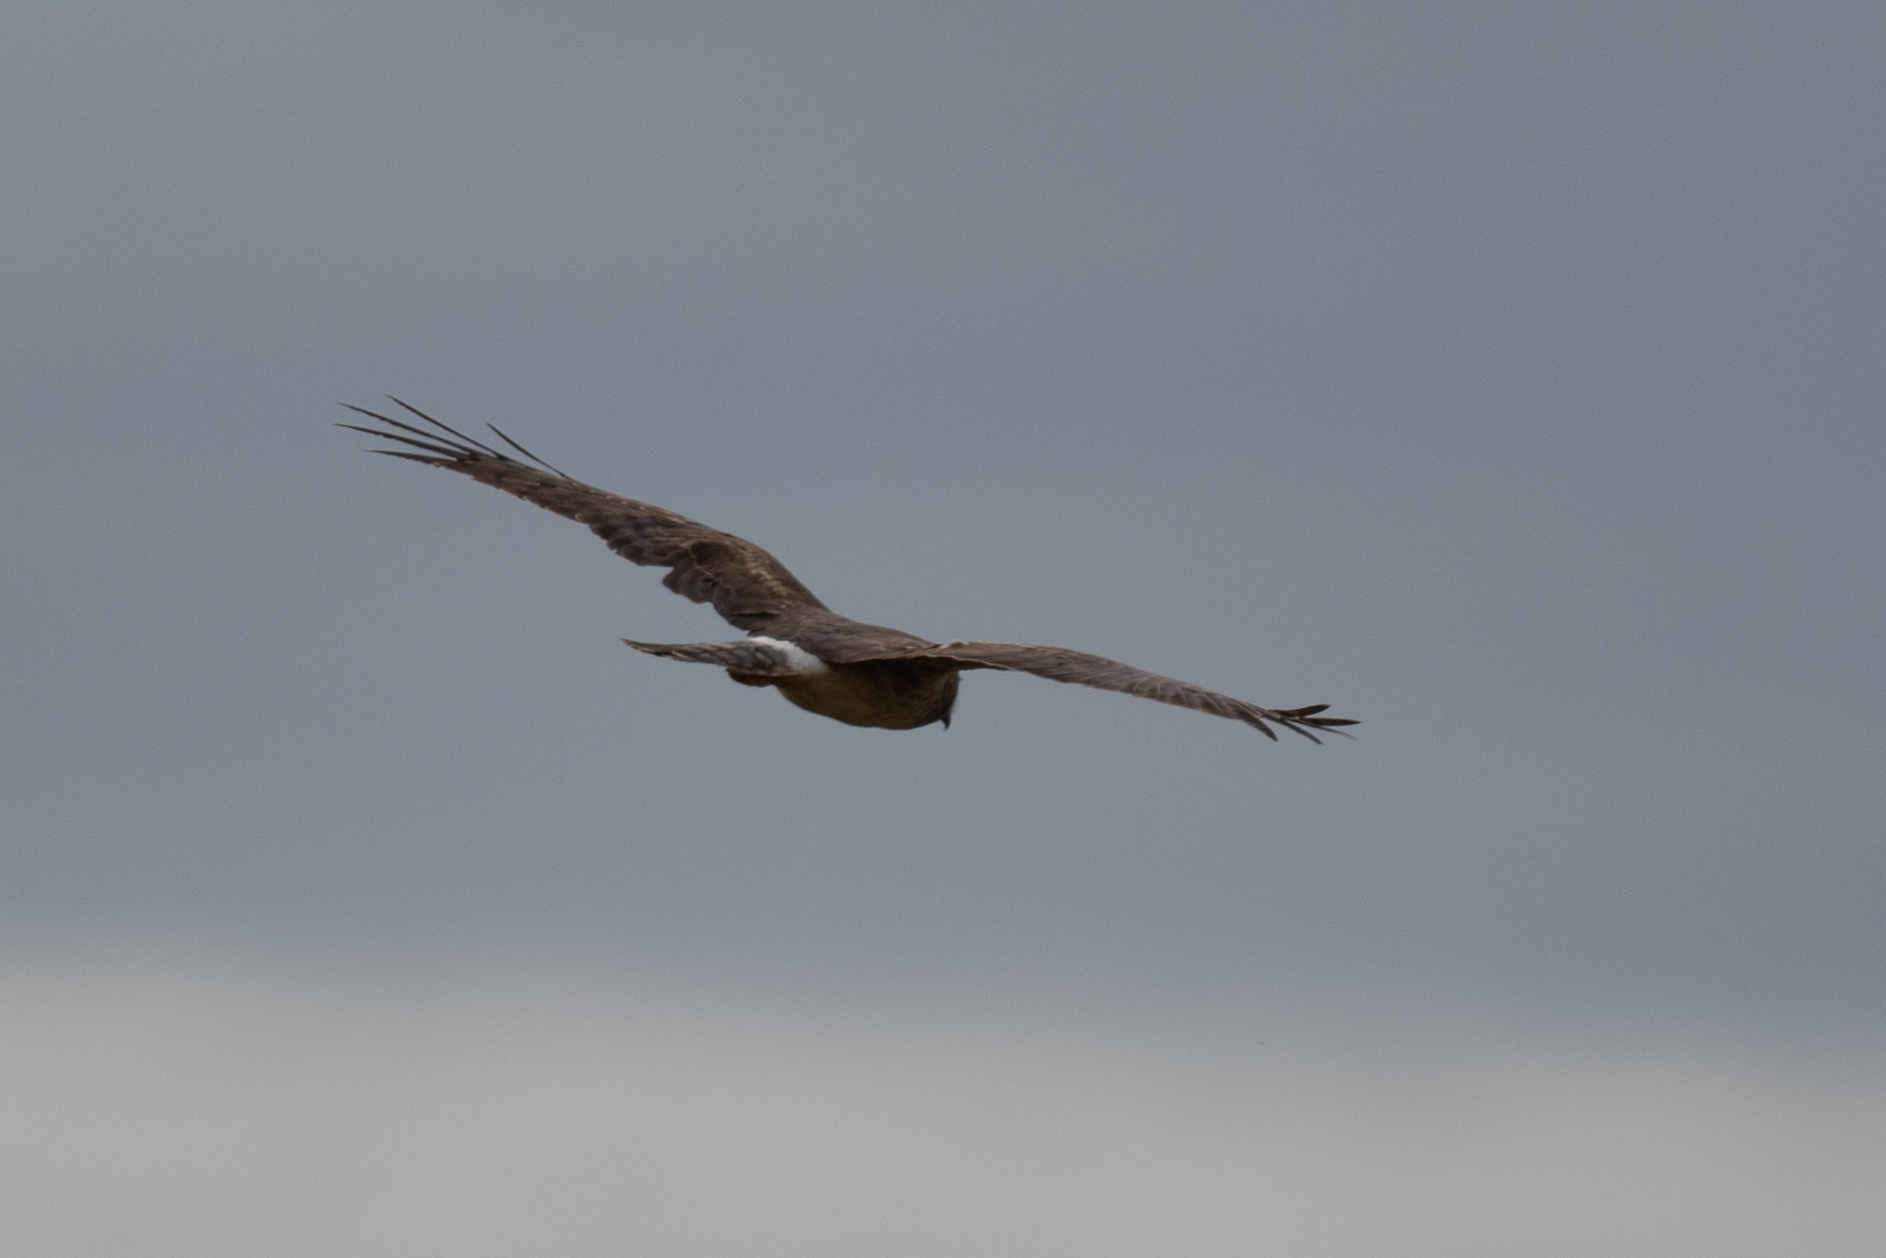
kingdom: Animalia
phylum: Chordata
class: Aves
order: Accipitriformes
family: Accipitridae
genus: Circus
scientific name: Circus cyaneus
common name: Hen harrier
